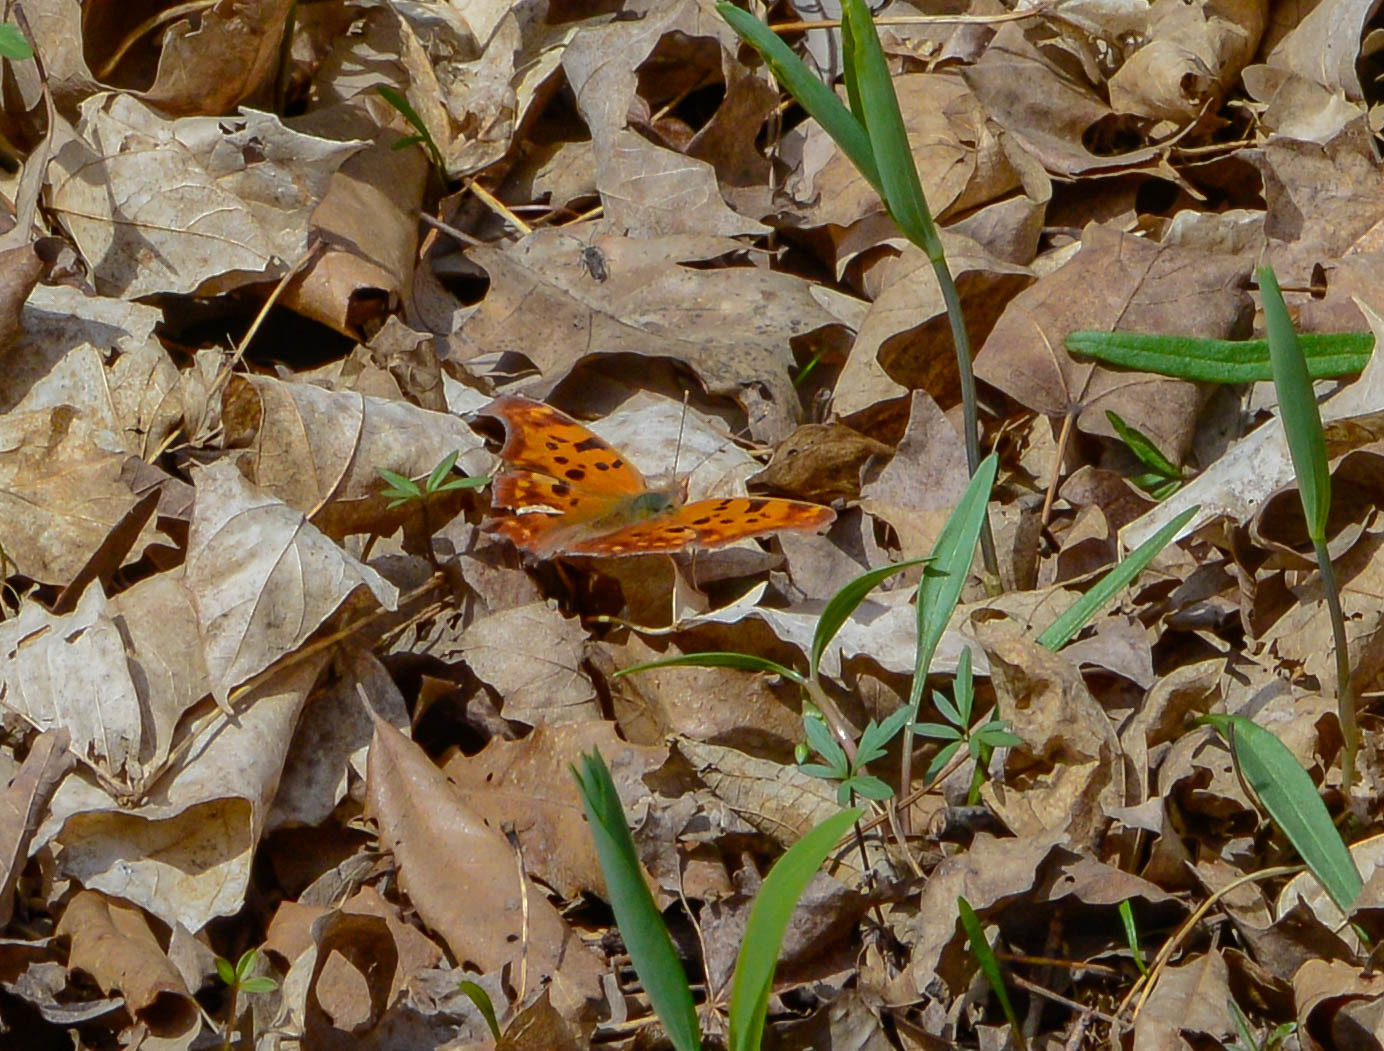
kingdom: Animalia
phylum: Arthropoda
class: Insecta
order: Lepidoptera
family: Nymphalidae
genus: Polygonia
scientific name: Polygonia interrogationis
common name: Question mark
